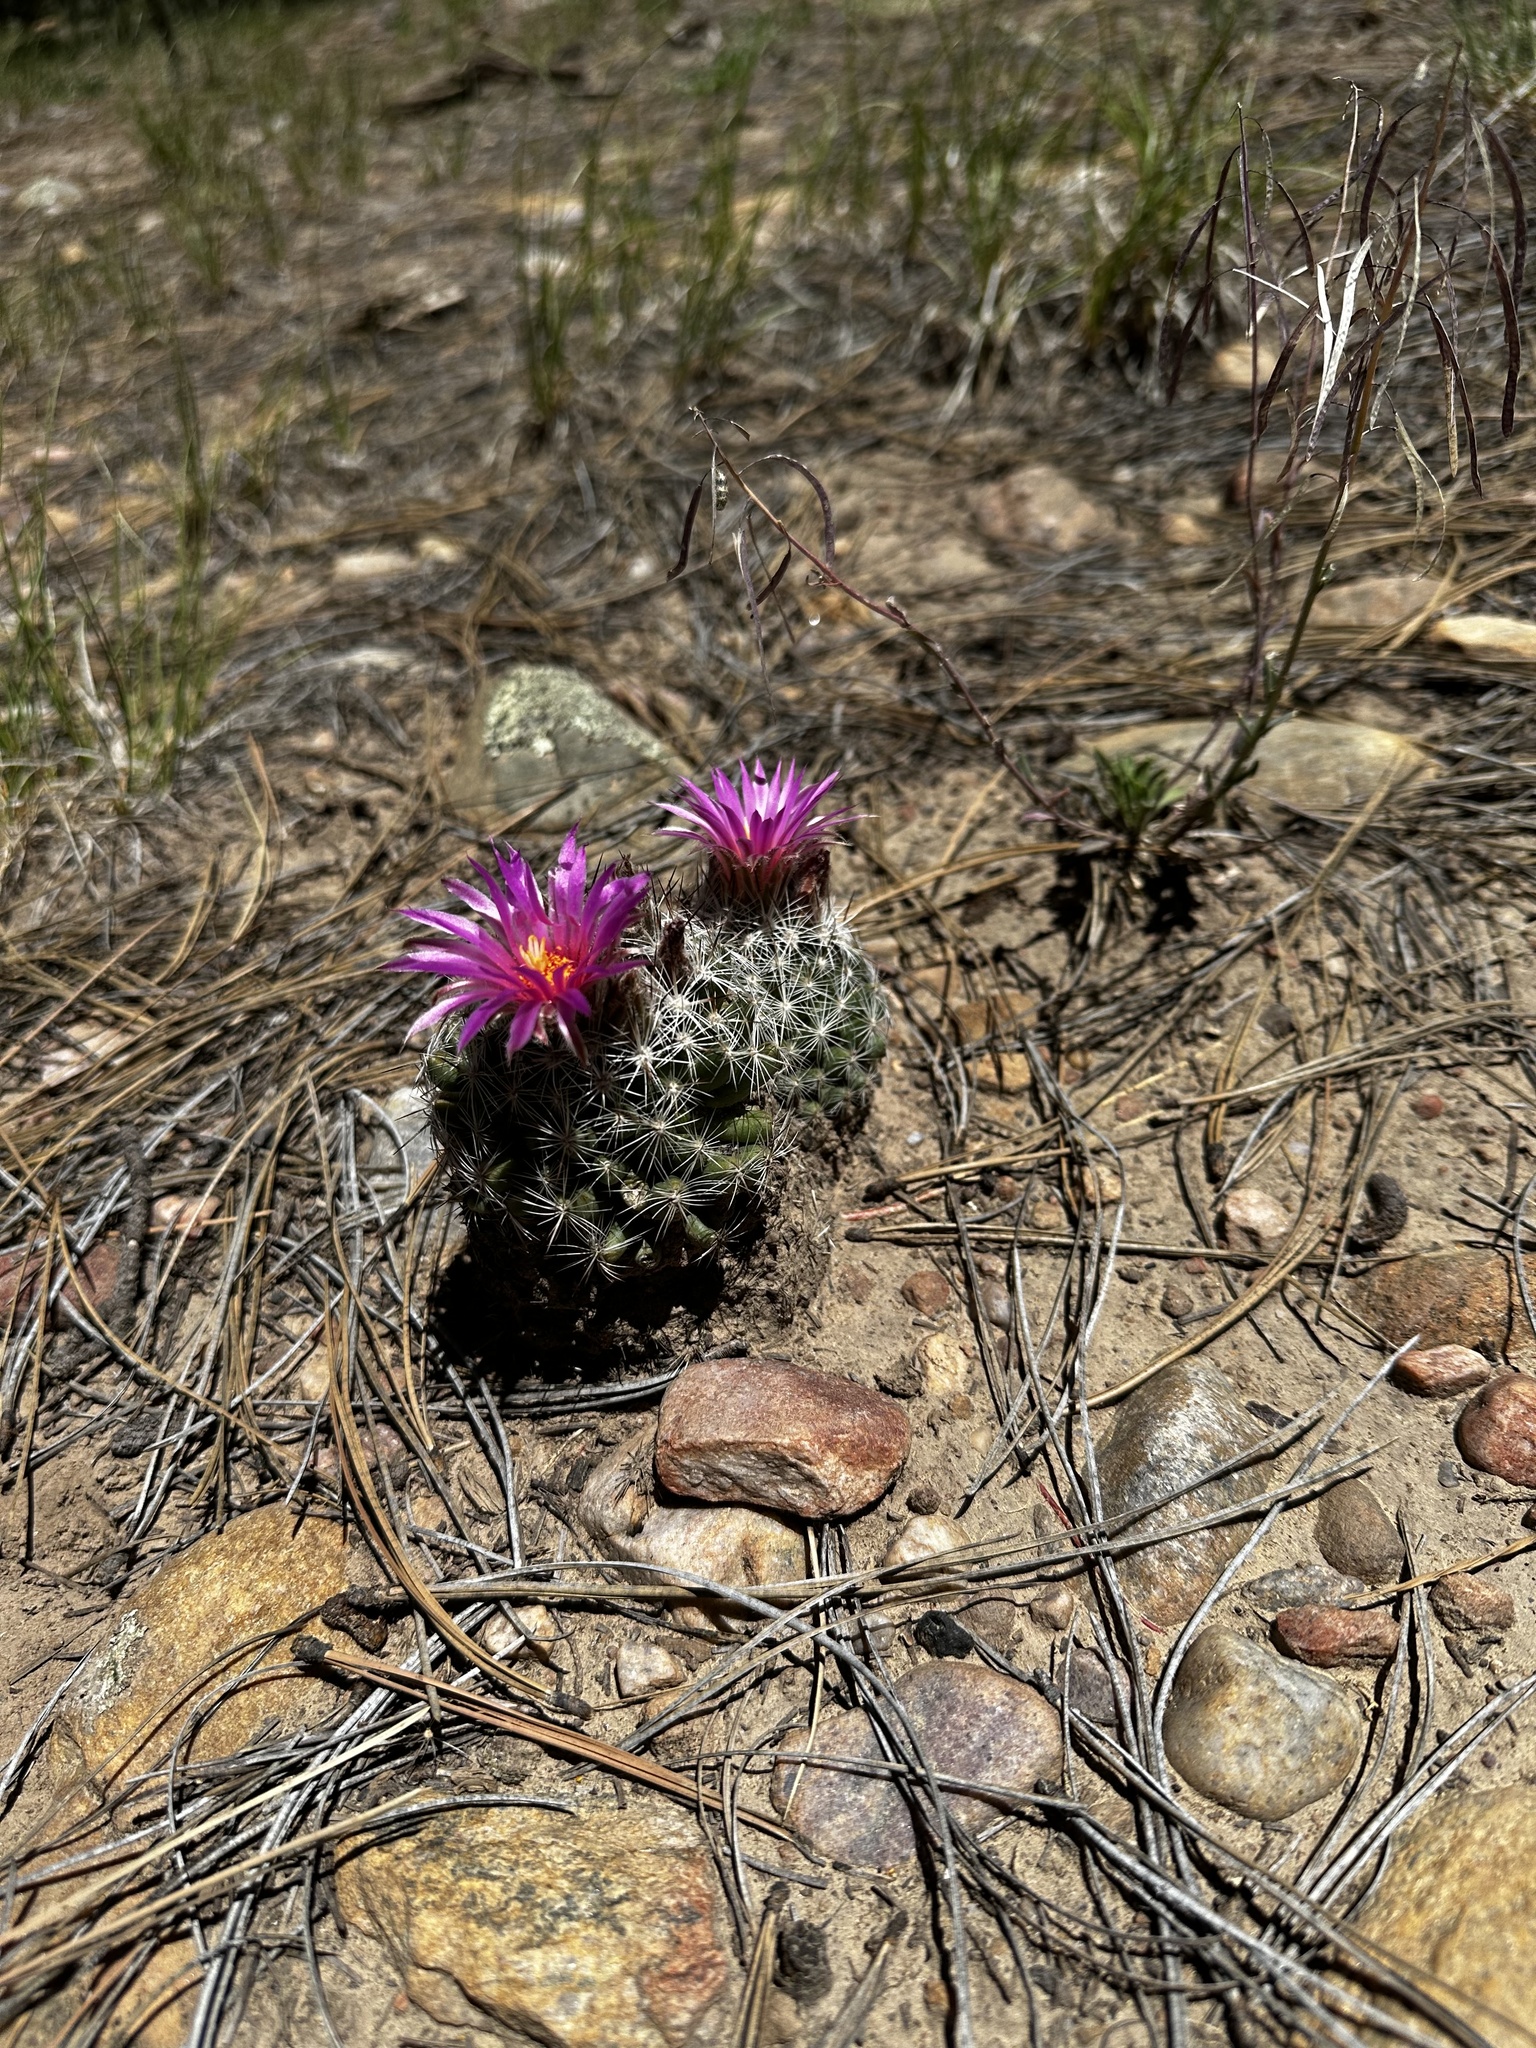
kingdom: Plantae
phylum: Tracheophyta
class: Magnoliopsida
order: Caryophyllales
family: Cactaceae
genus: Pelecyphora
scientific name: Pelecyphora vivipara
